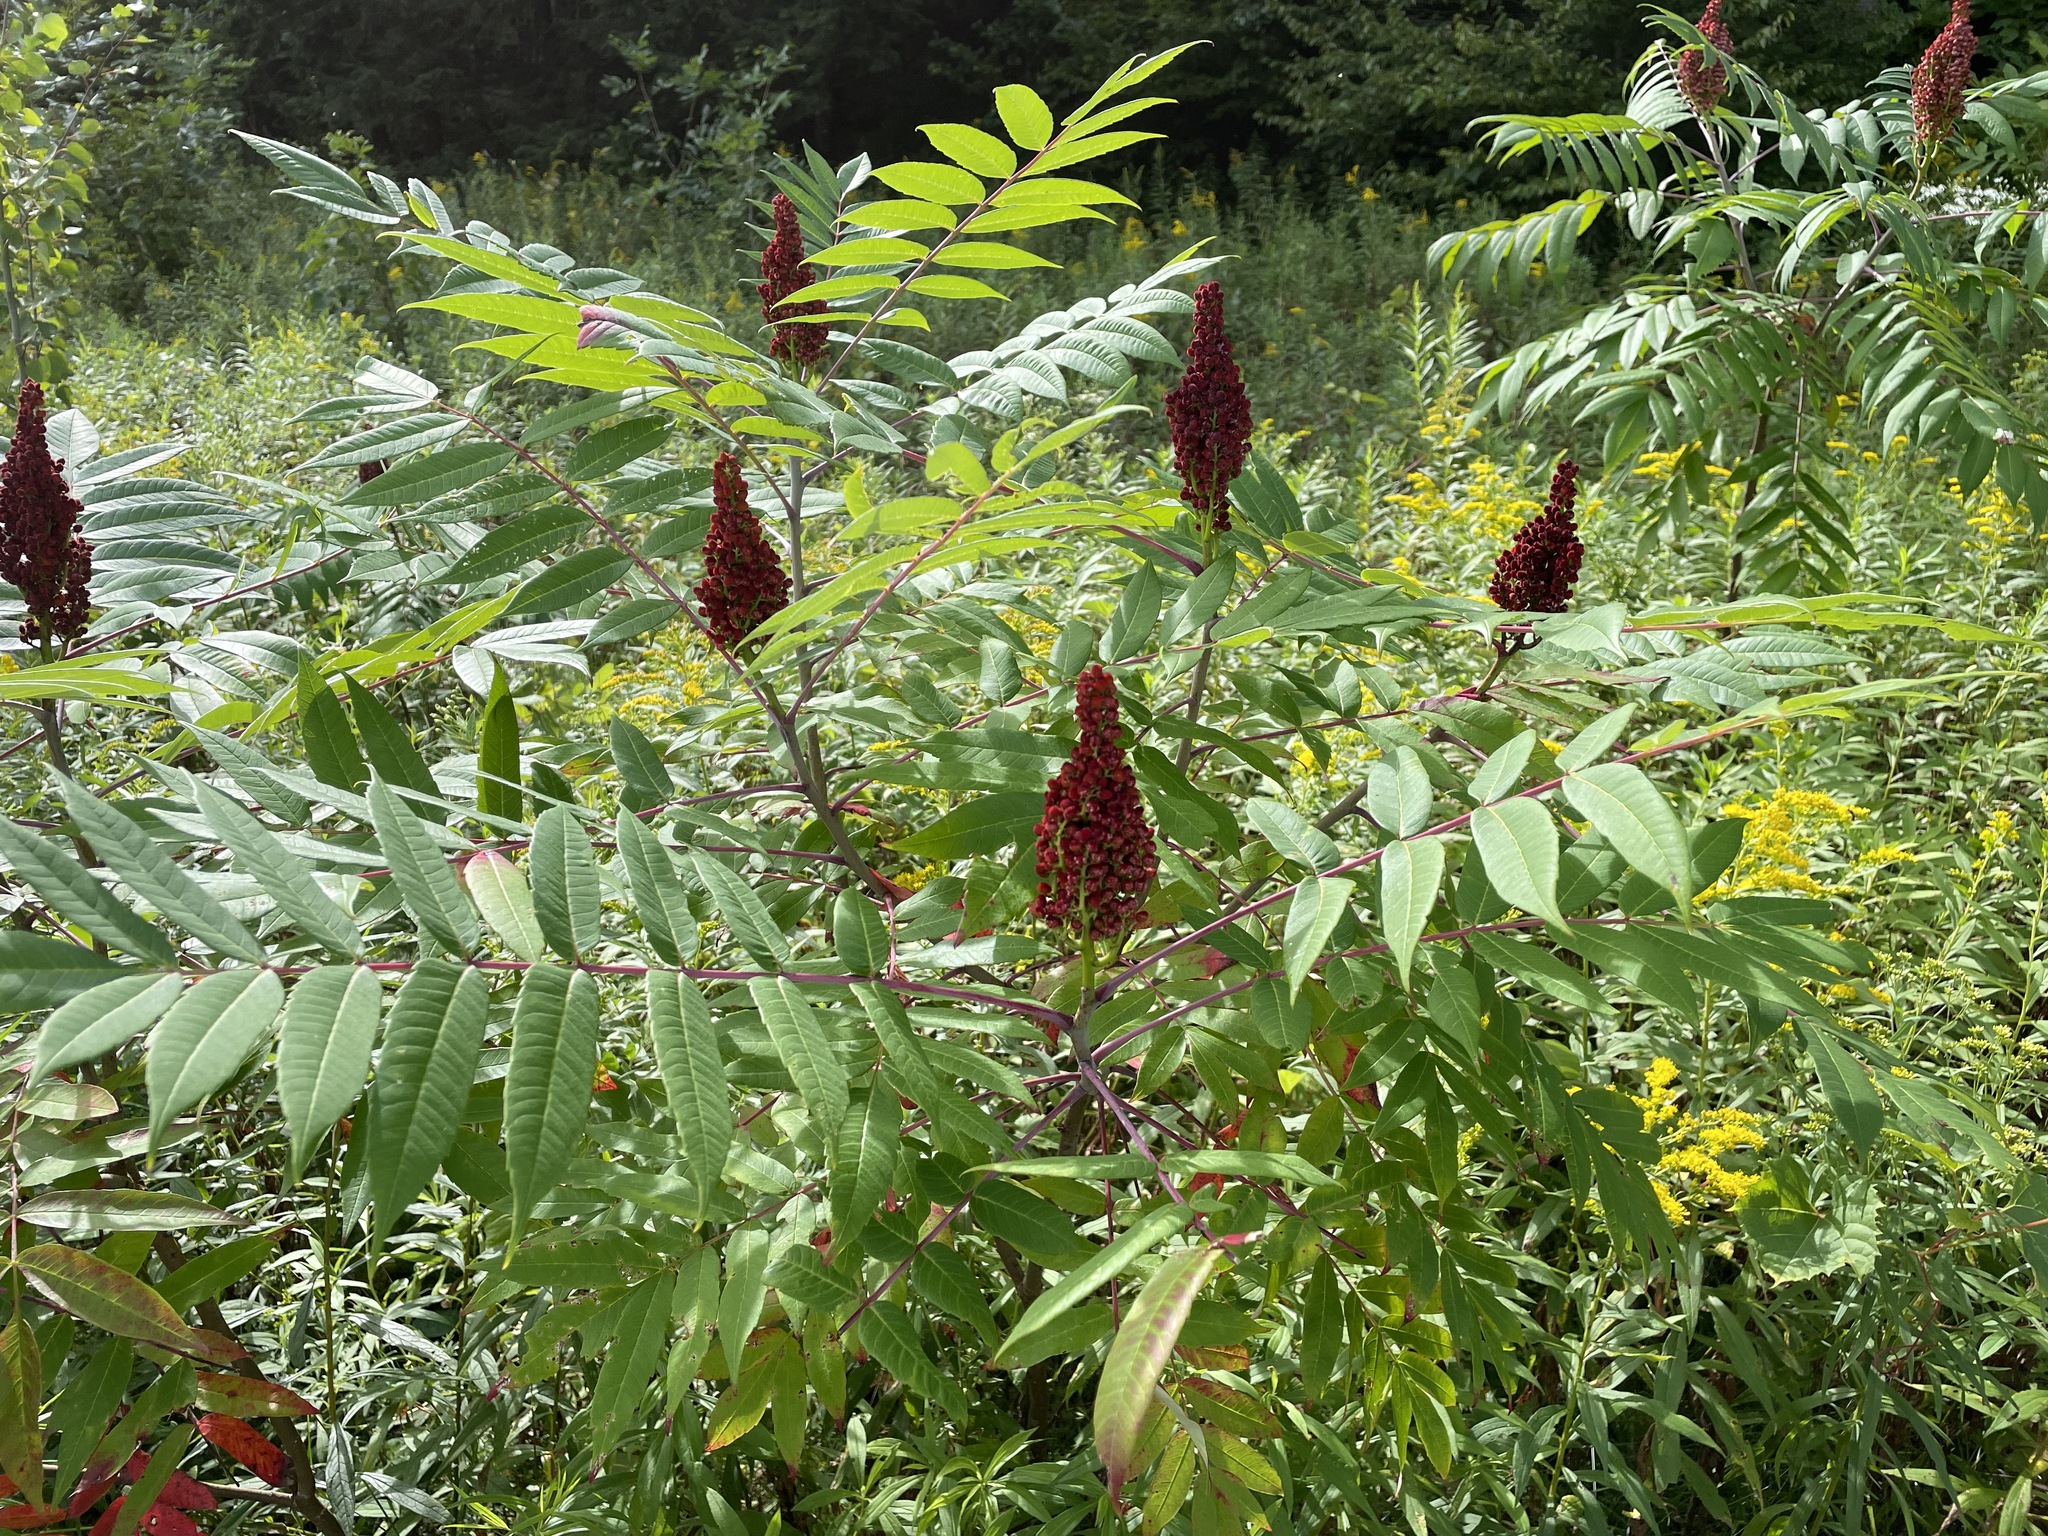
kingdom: Plantae
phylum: Tracheophyta
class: Magnoliopsida
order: Sapindales
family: Anacardiaceae
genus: Rhus
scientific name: Rhus glabra
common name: Scarlet sumac
